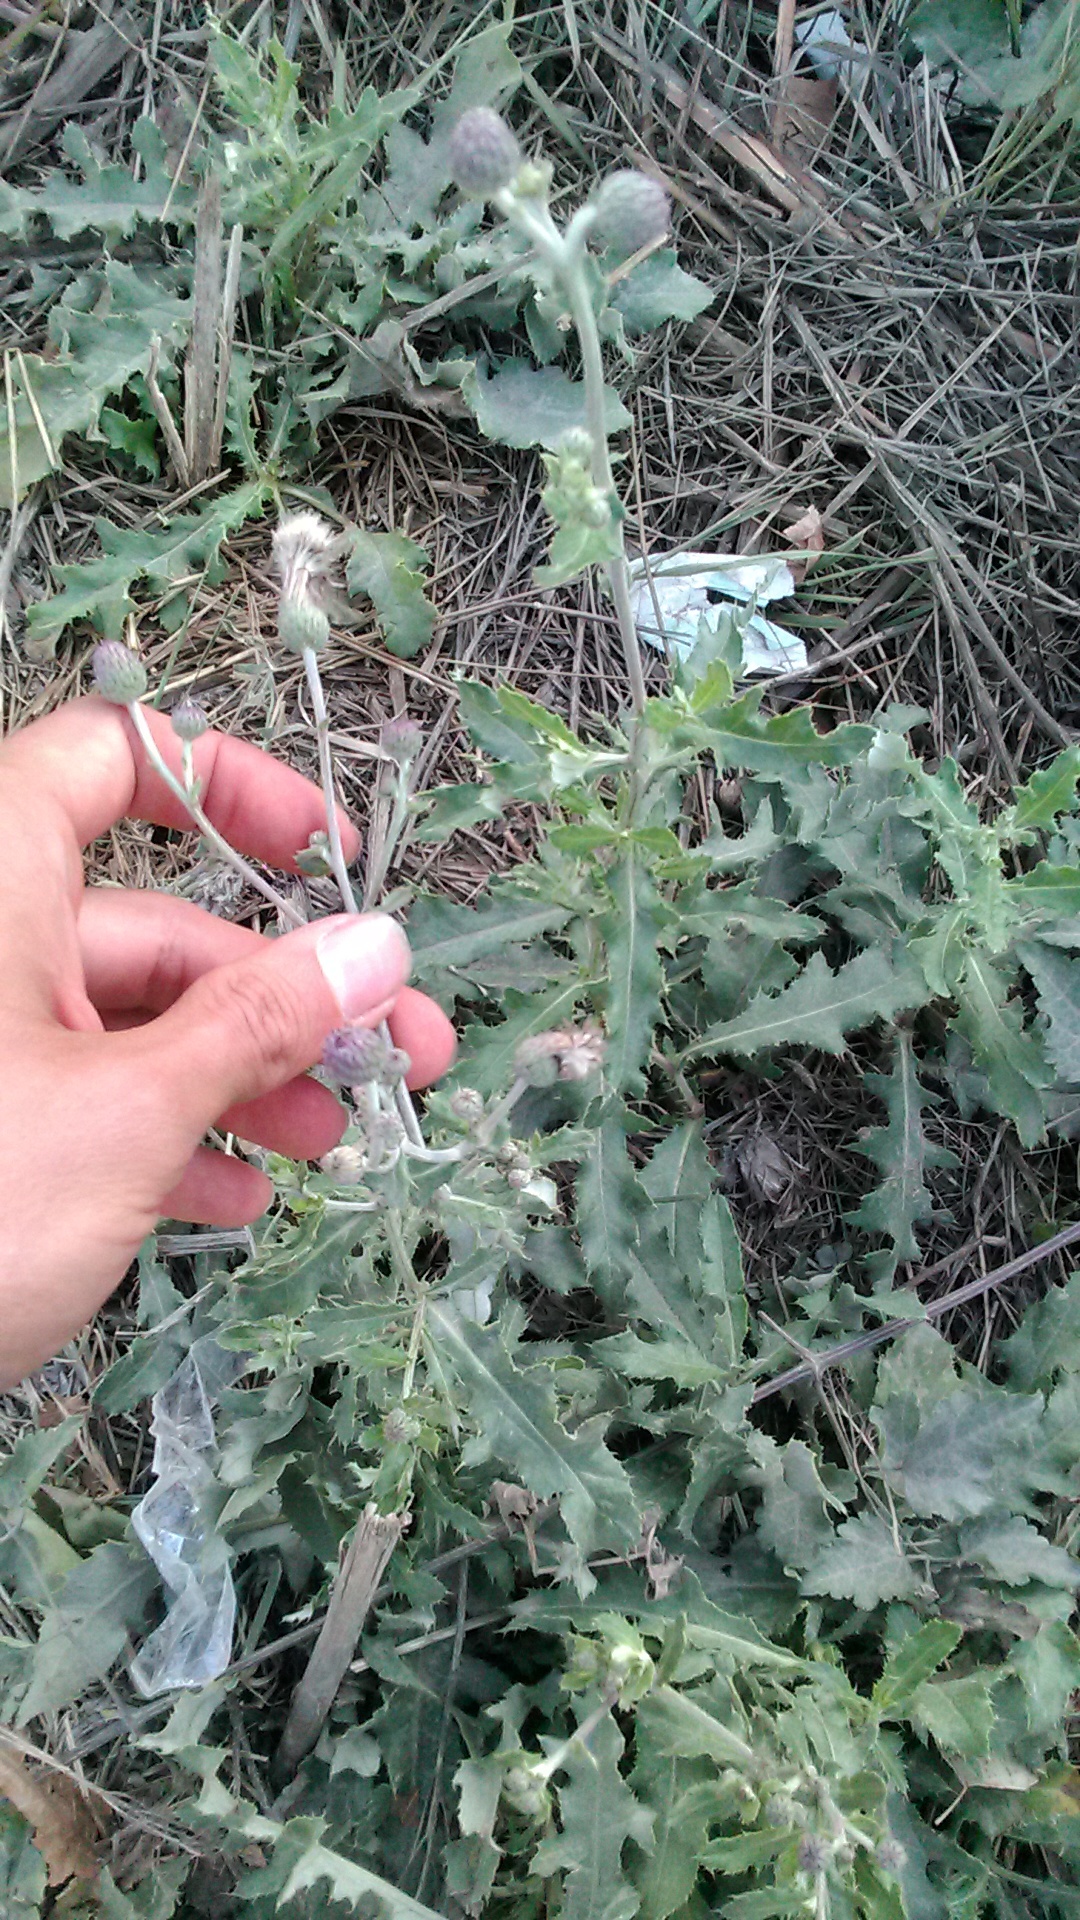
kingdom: Plantae
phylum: Tracheophyta
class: Magnoliopsida
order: Asterales
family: Asteraceae
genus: Cirsium
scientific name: Cirsium arvense
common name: Creeping thistle
